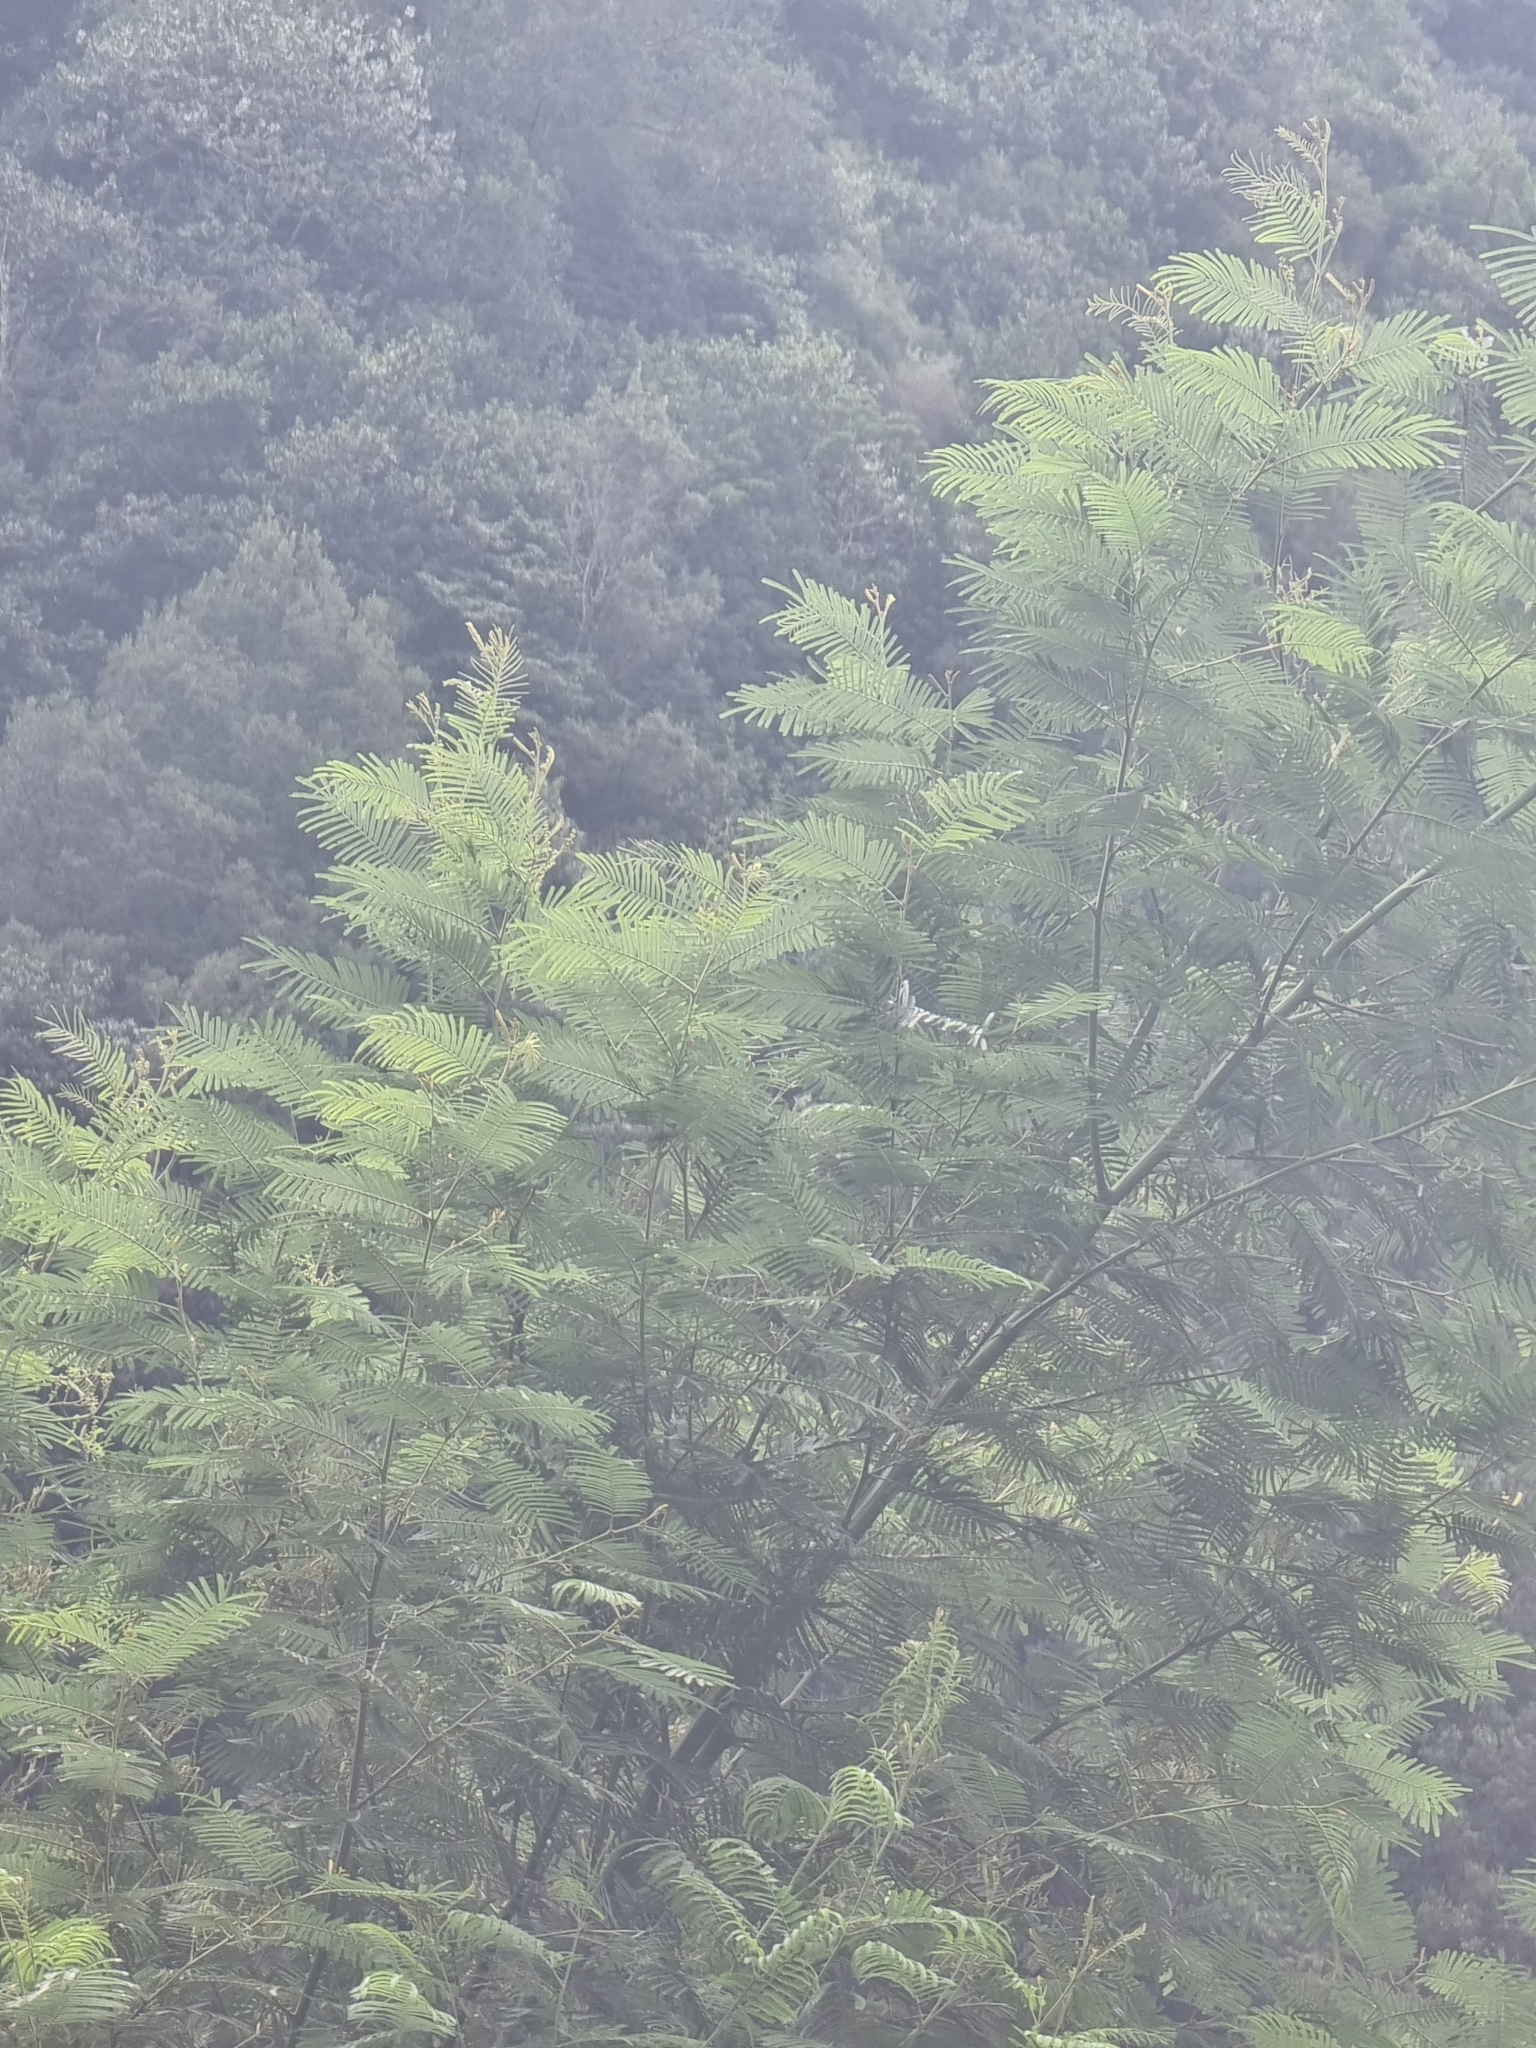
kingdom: Plantae
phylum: Tracheophyta
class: Magnoliopsida
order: Fabales
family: Fabaceae
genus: Acacia
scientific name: Acacia mearnsii
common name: Black wattle
